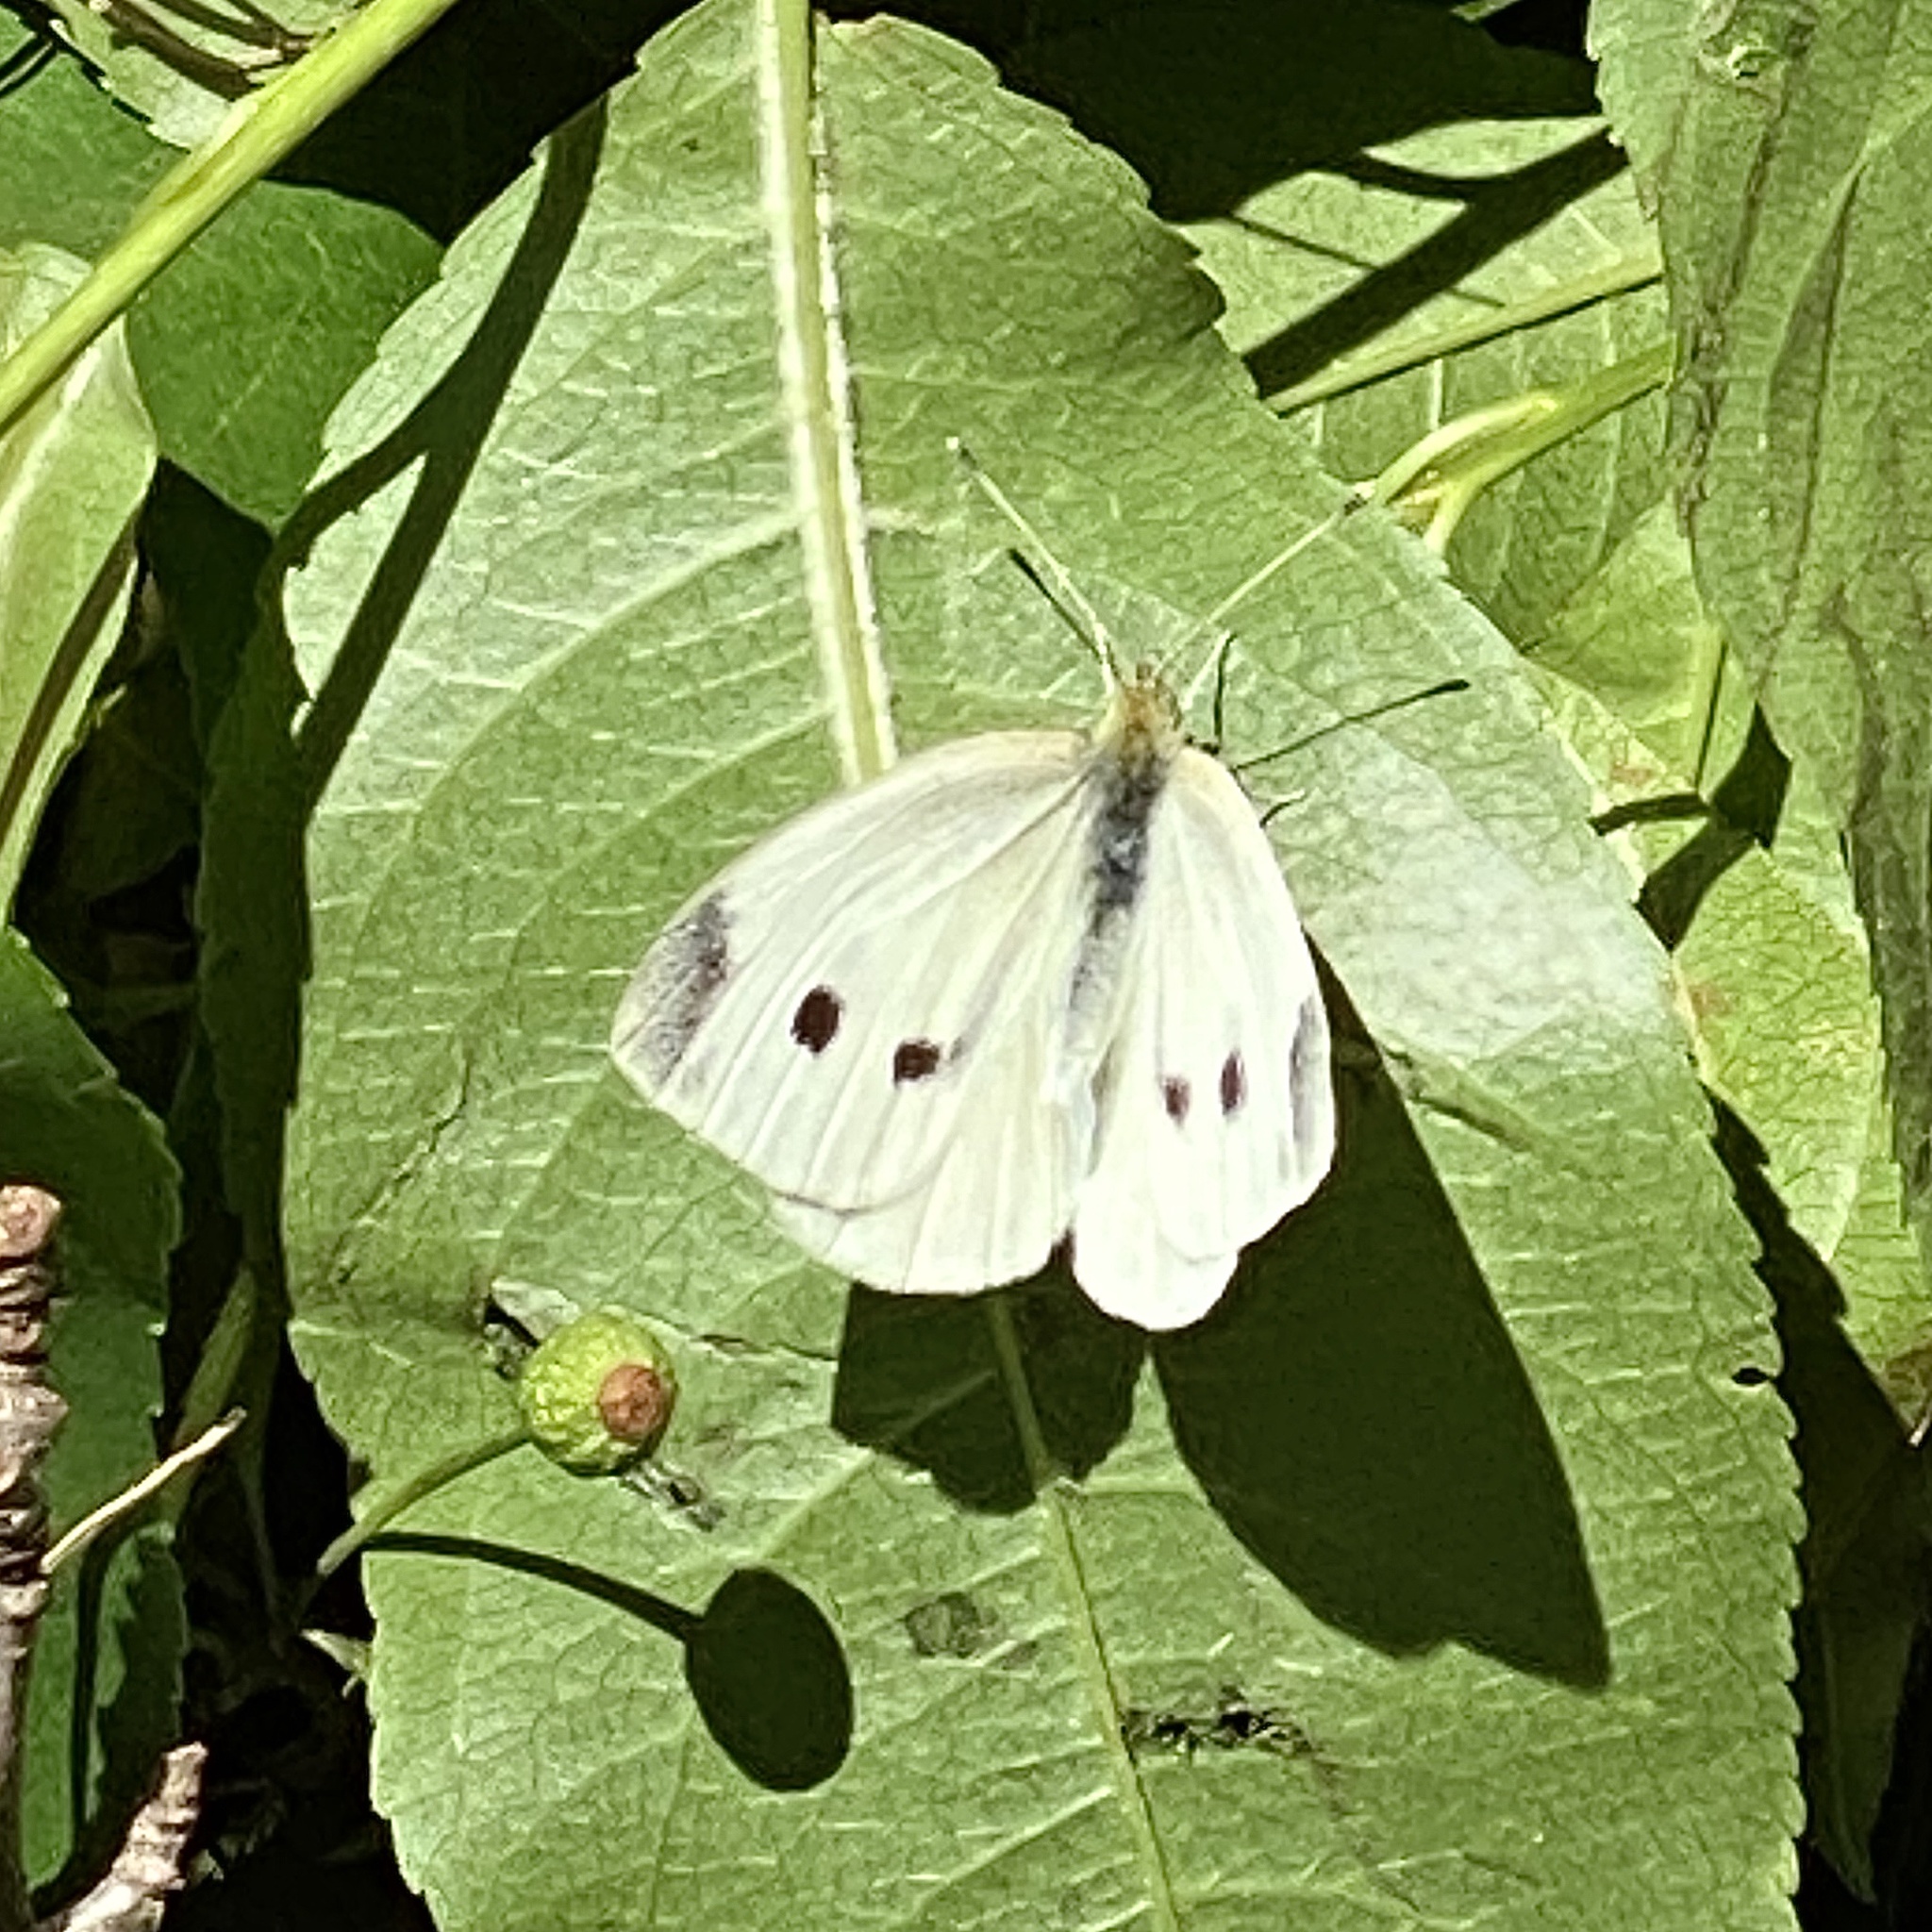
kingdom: Animalia
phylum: Arthropoda
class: Insecta
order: Lepidoptera
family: Pieridae
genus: Pieris
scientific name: Pieris rapae
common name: Small white
